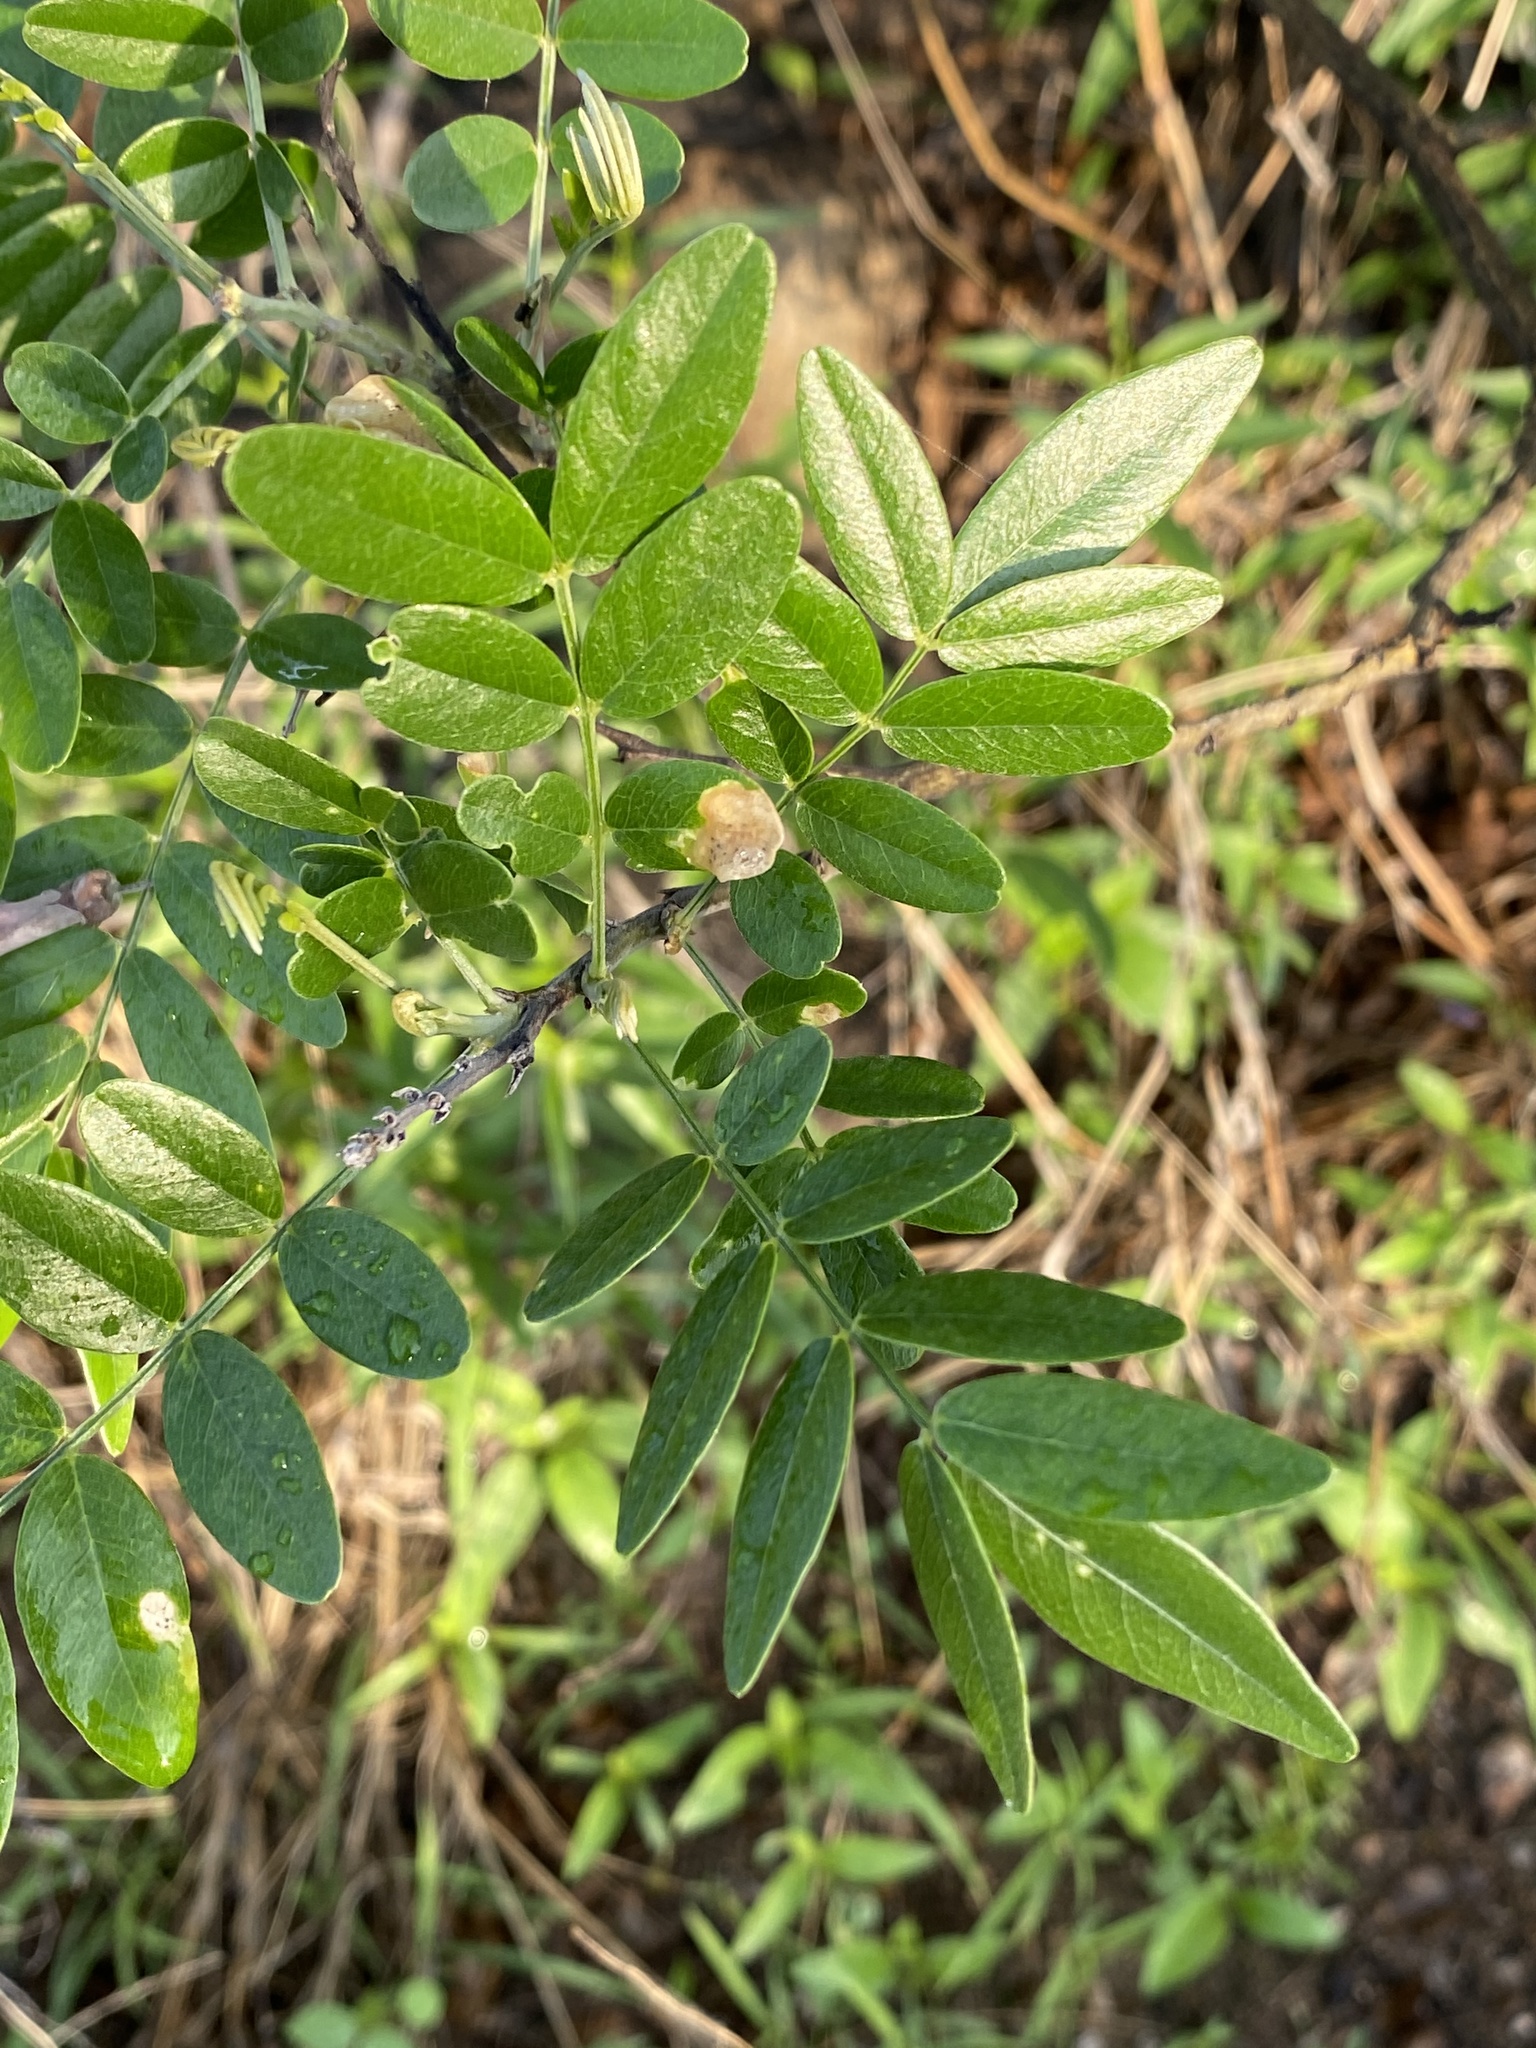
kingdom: Plantae
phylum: Tracheophyta
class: Magnoliopsida
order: Fabales
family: Fabaceae
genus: Mundulea
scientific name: Mundulea sericea
